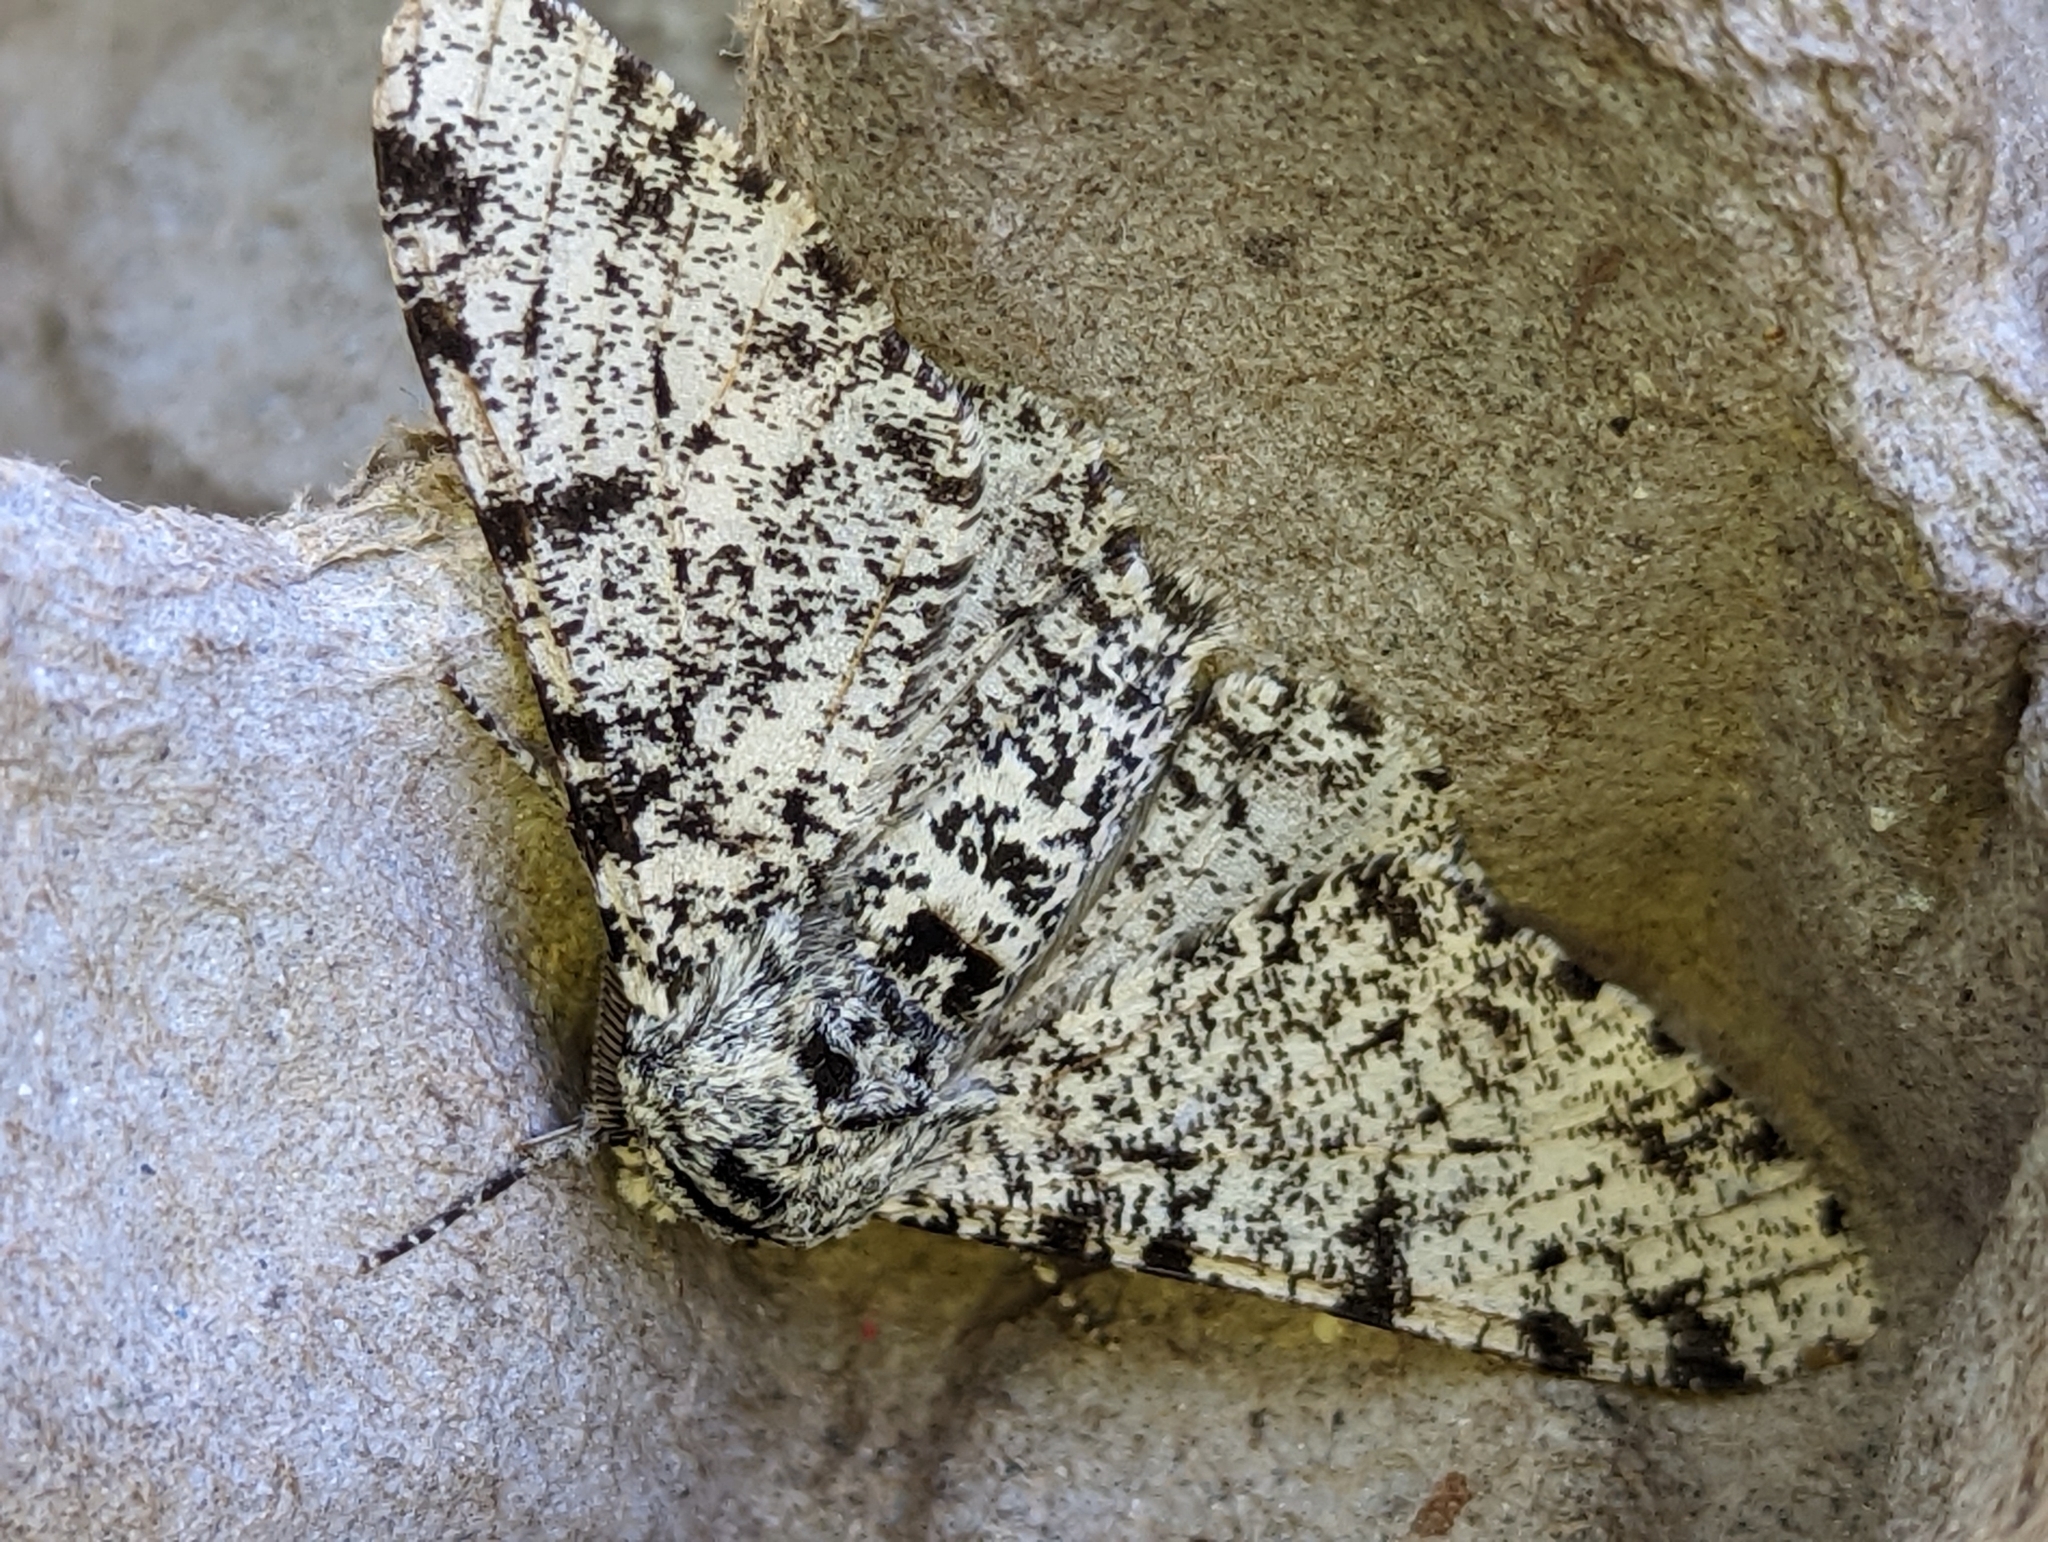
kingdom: Animalia
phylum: Arthropoda
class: Insecta
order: Lepidoptera
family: Geometridae
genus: Biston
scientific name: Biston betularia
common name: Peppered moth
